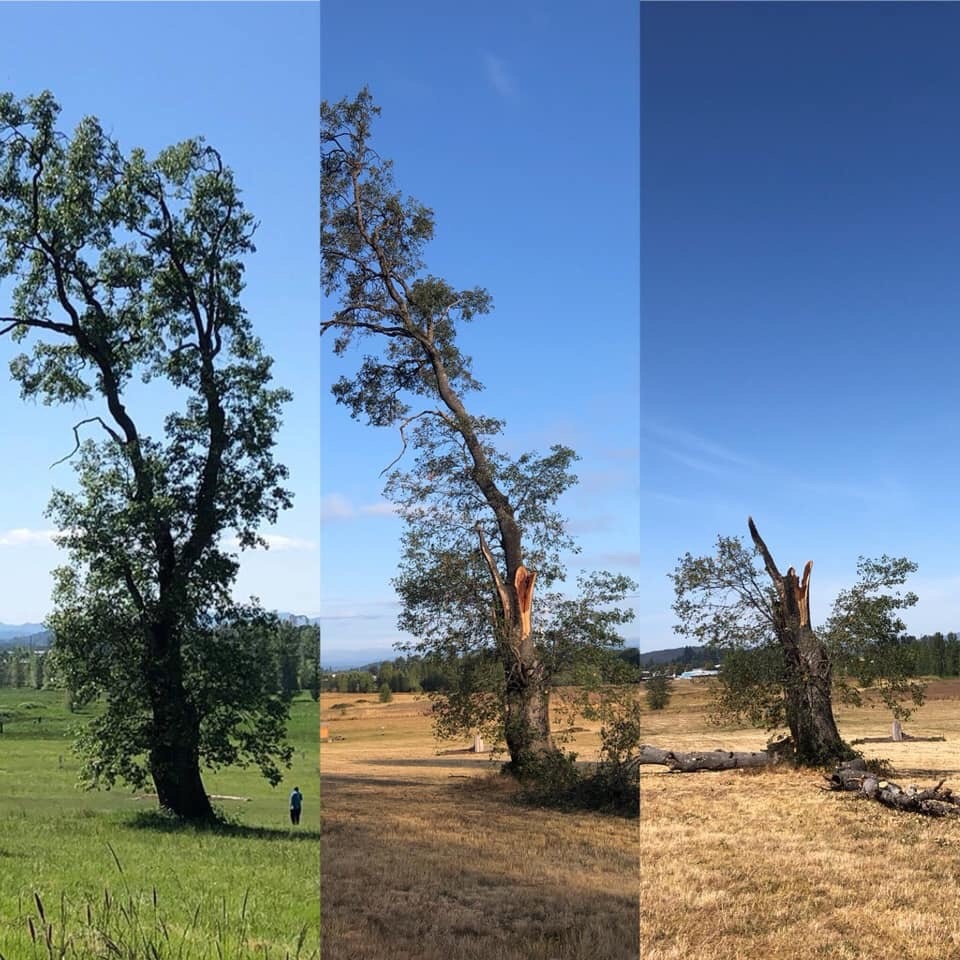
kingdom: Plantae
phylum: Tracheophyta
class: Magnoliopsida
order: Fagales
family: Fagaceae
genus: Quercus
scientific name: Quercus kelloggii
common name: California black oak
